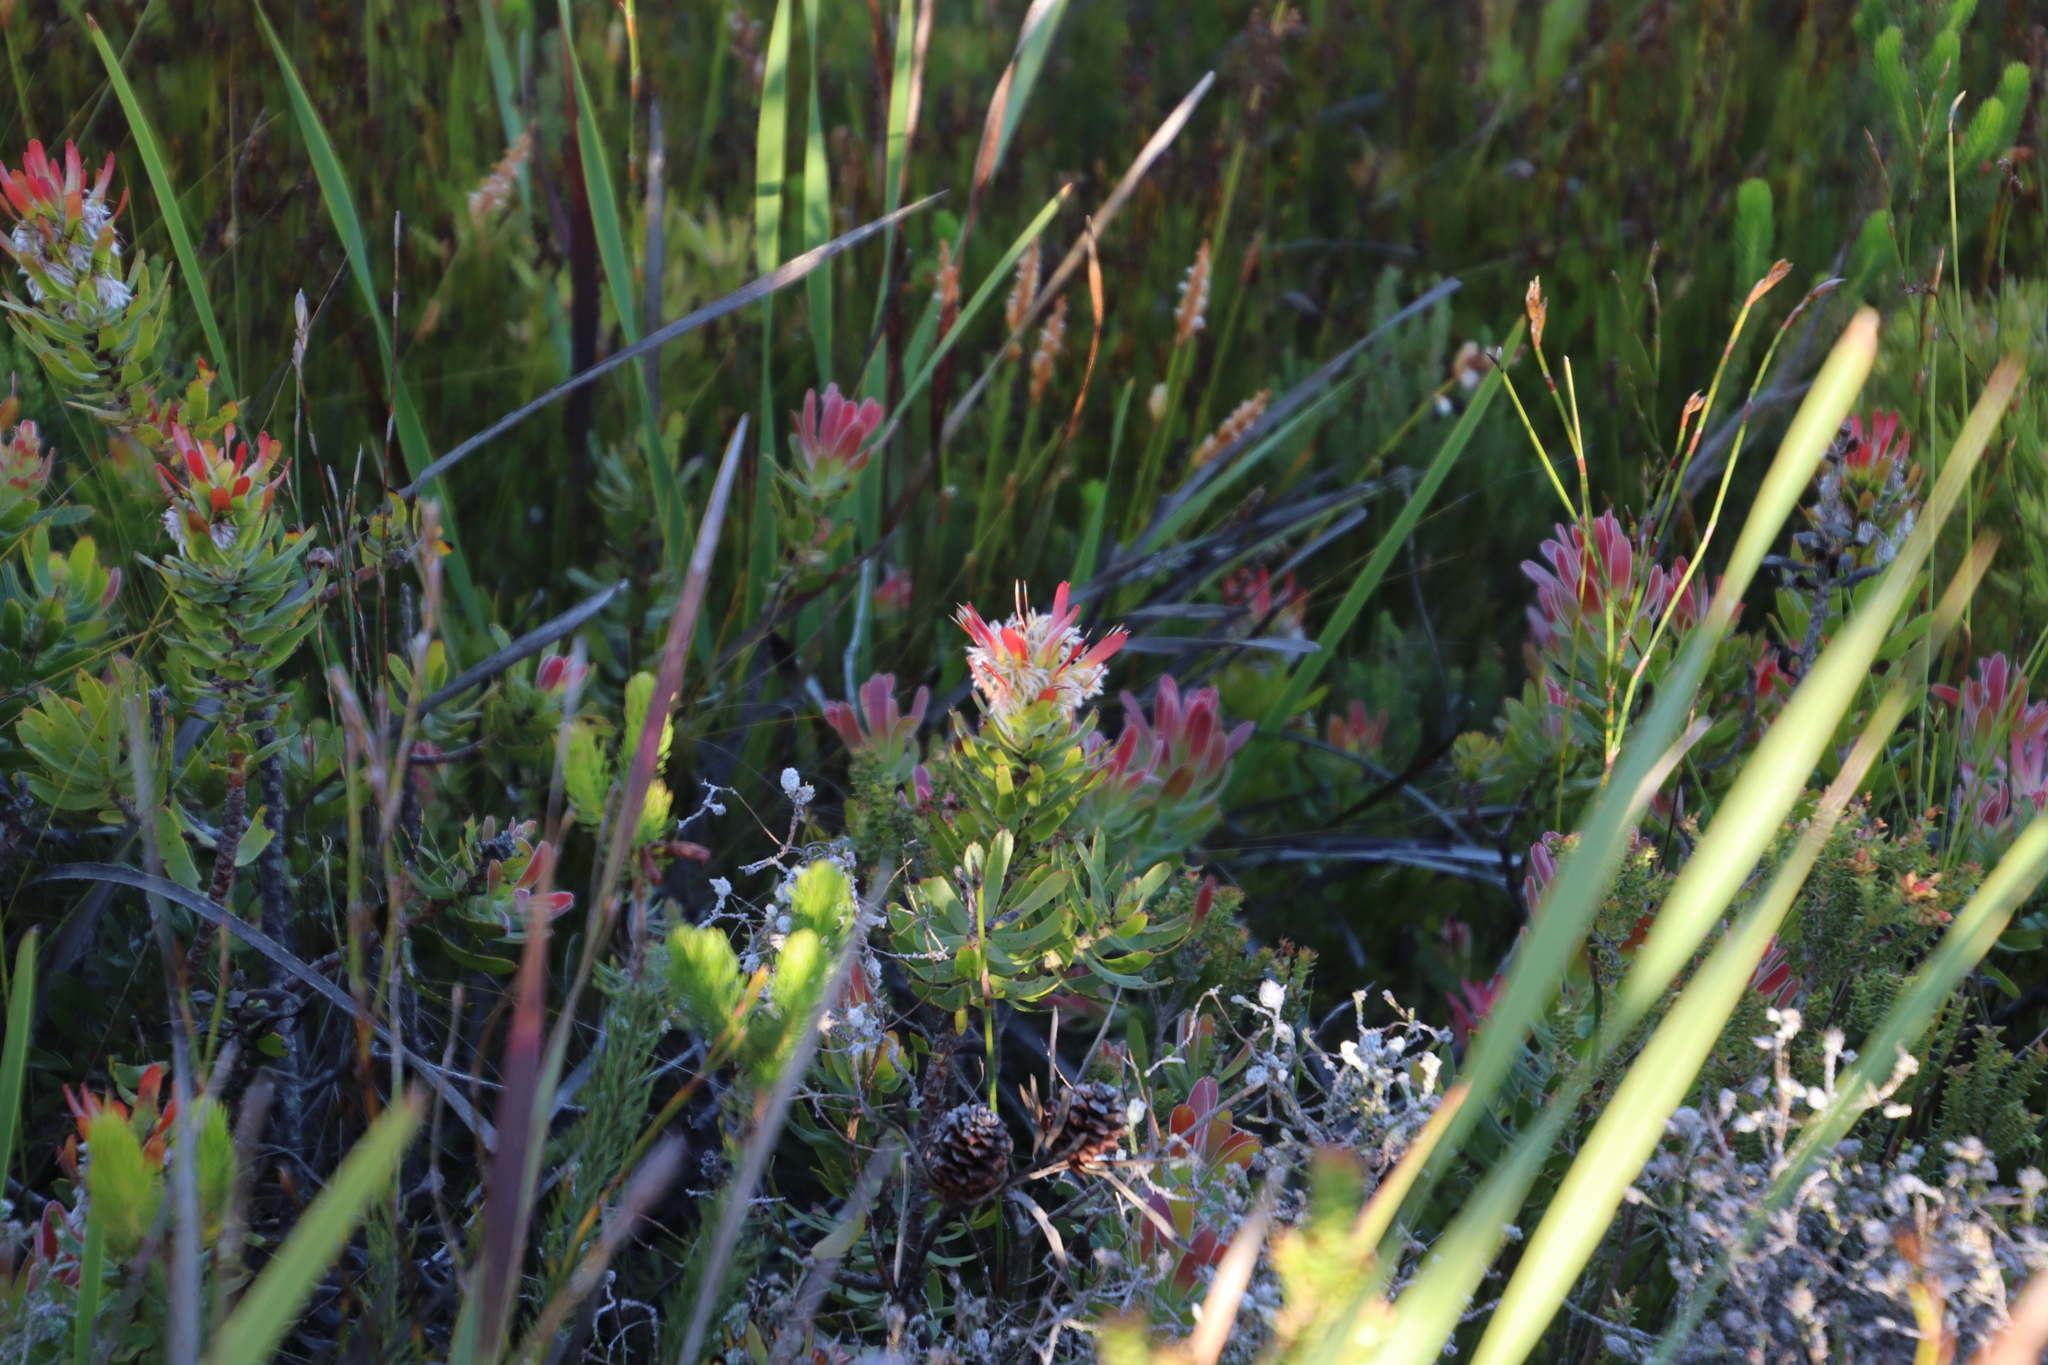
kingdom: Plantae
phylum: Tracheophyta
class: Magnoliopsida
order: Proteales
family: Proteaceae
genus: Mimetes
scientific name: Mimetes cucullatus
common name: Common pagoda
